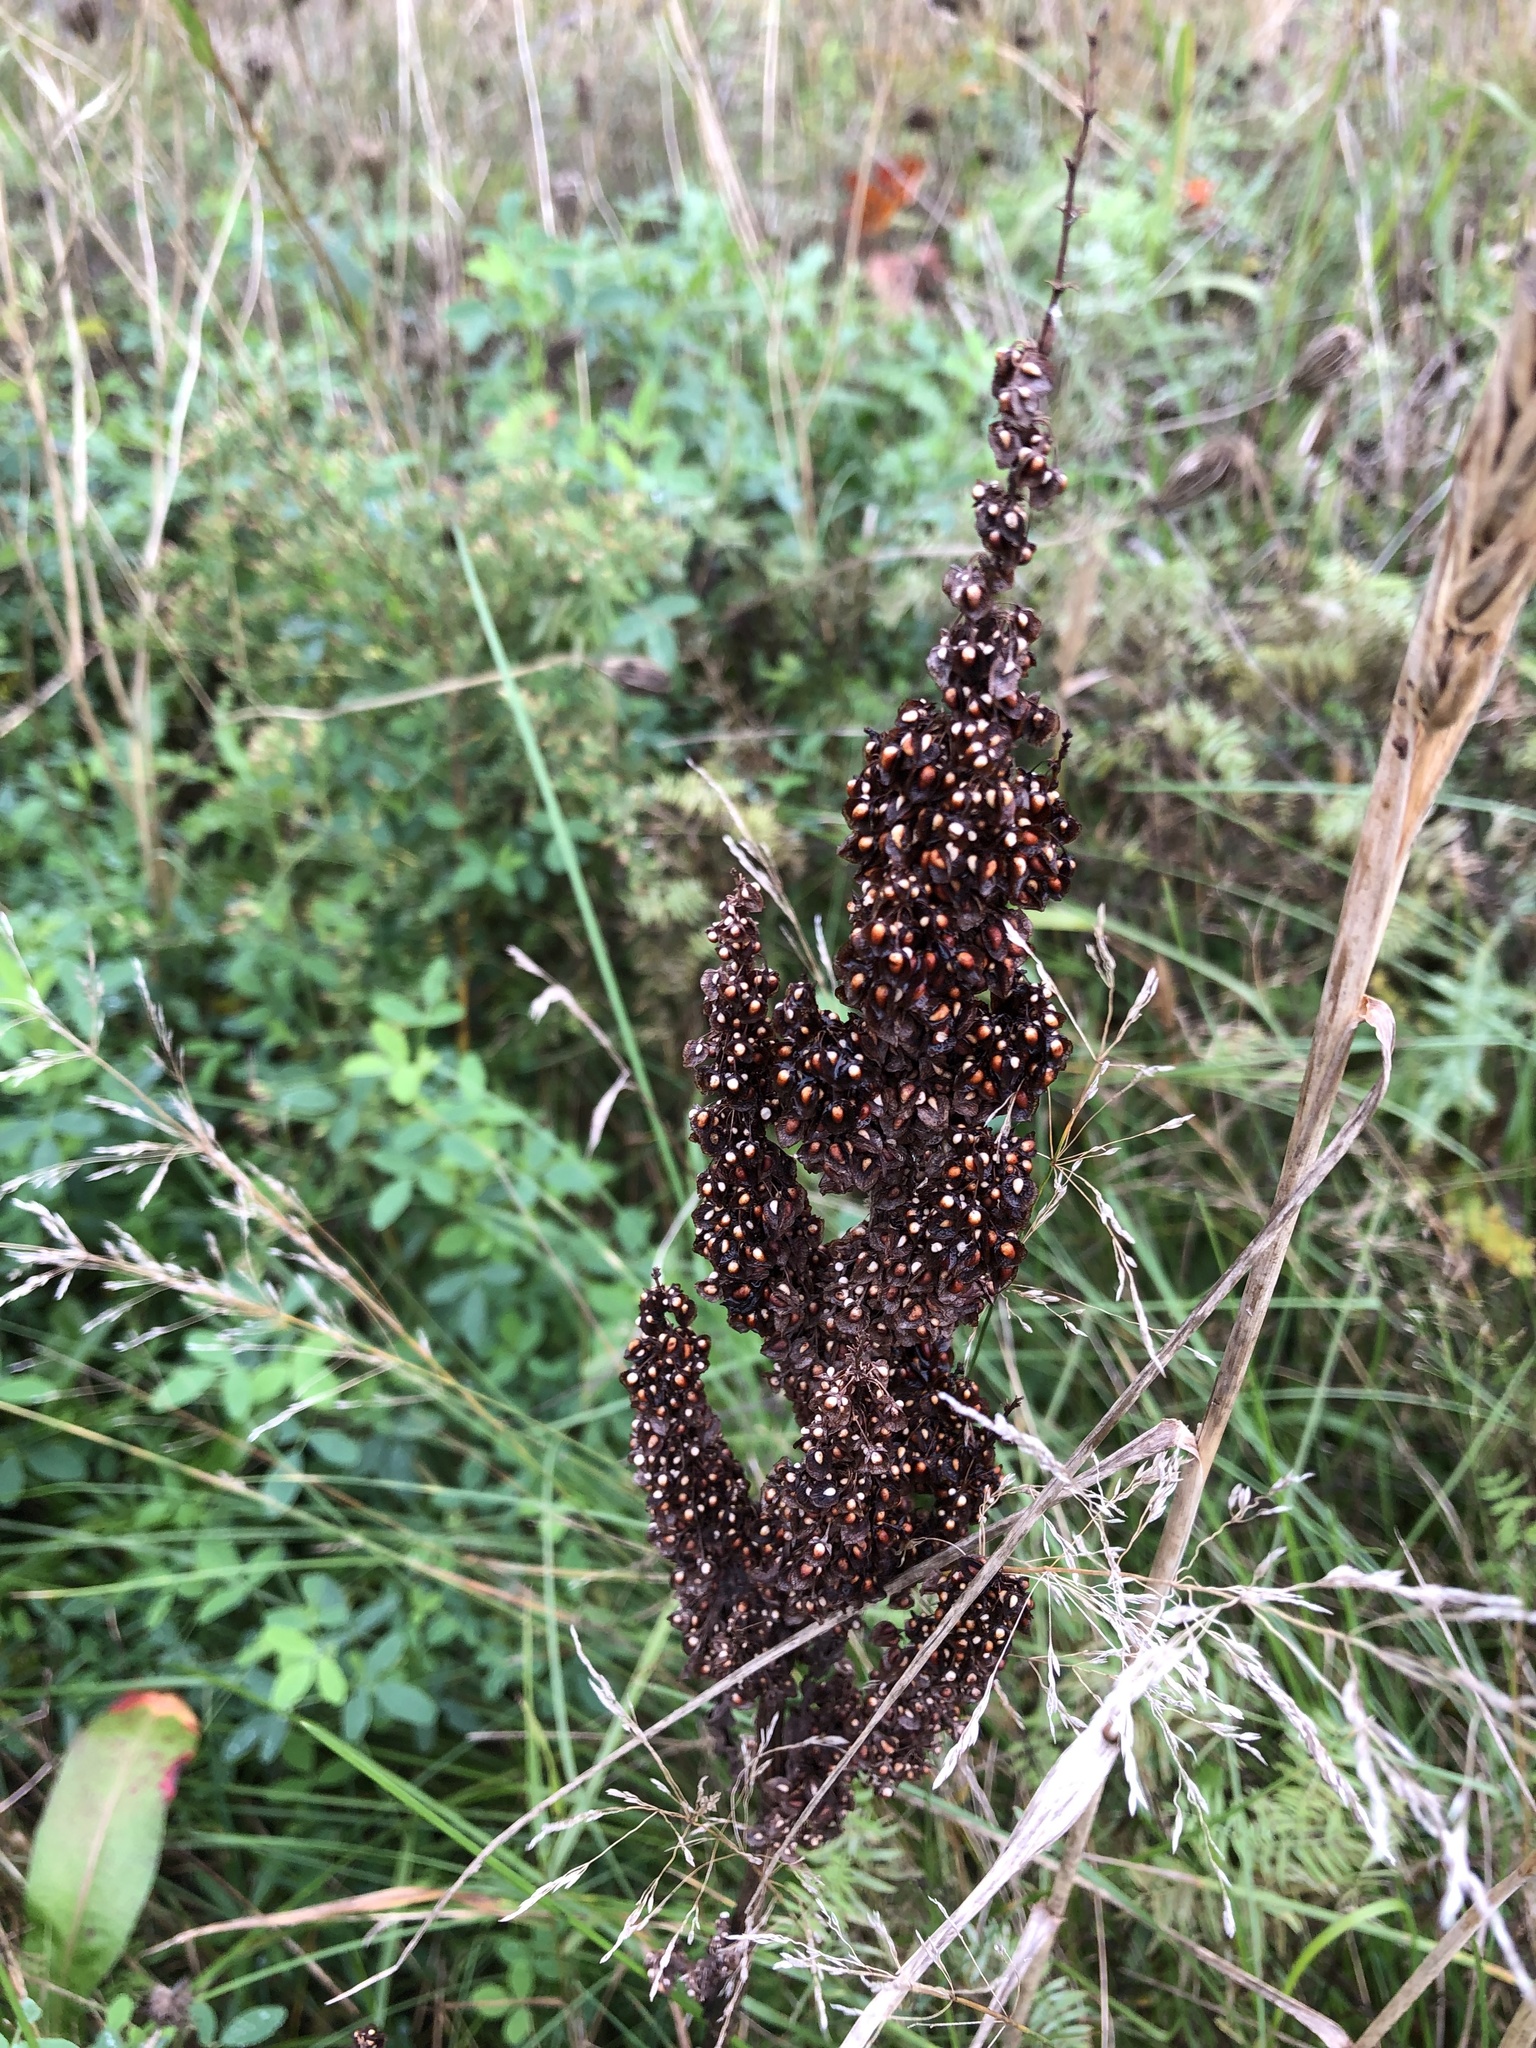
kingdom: Plantae
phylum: Tracheophyta
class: Magnoliopsida
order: Caryophyllales
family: Polygonaceae
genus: Rumex
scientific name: Rumex crispus
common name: Curled dock
